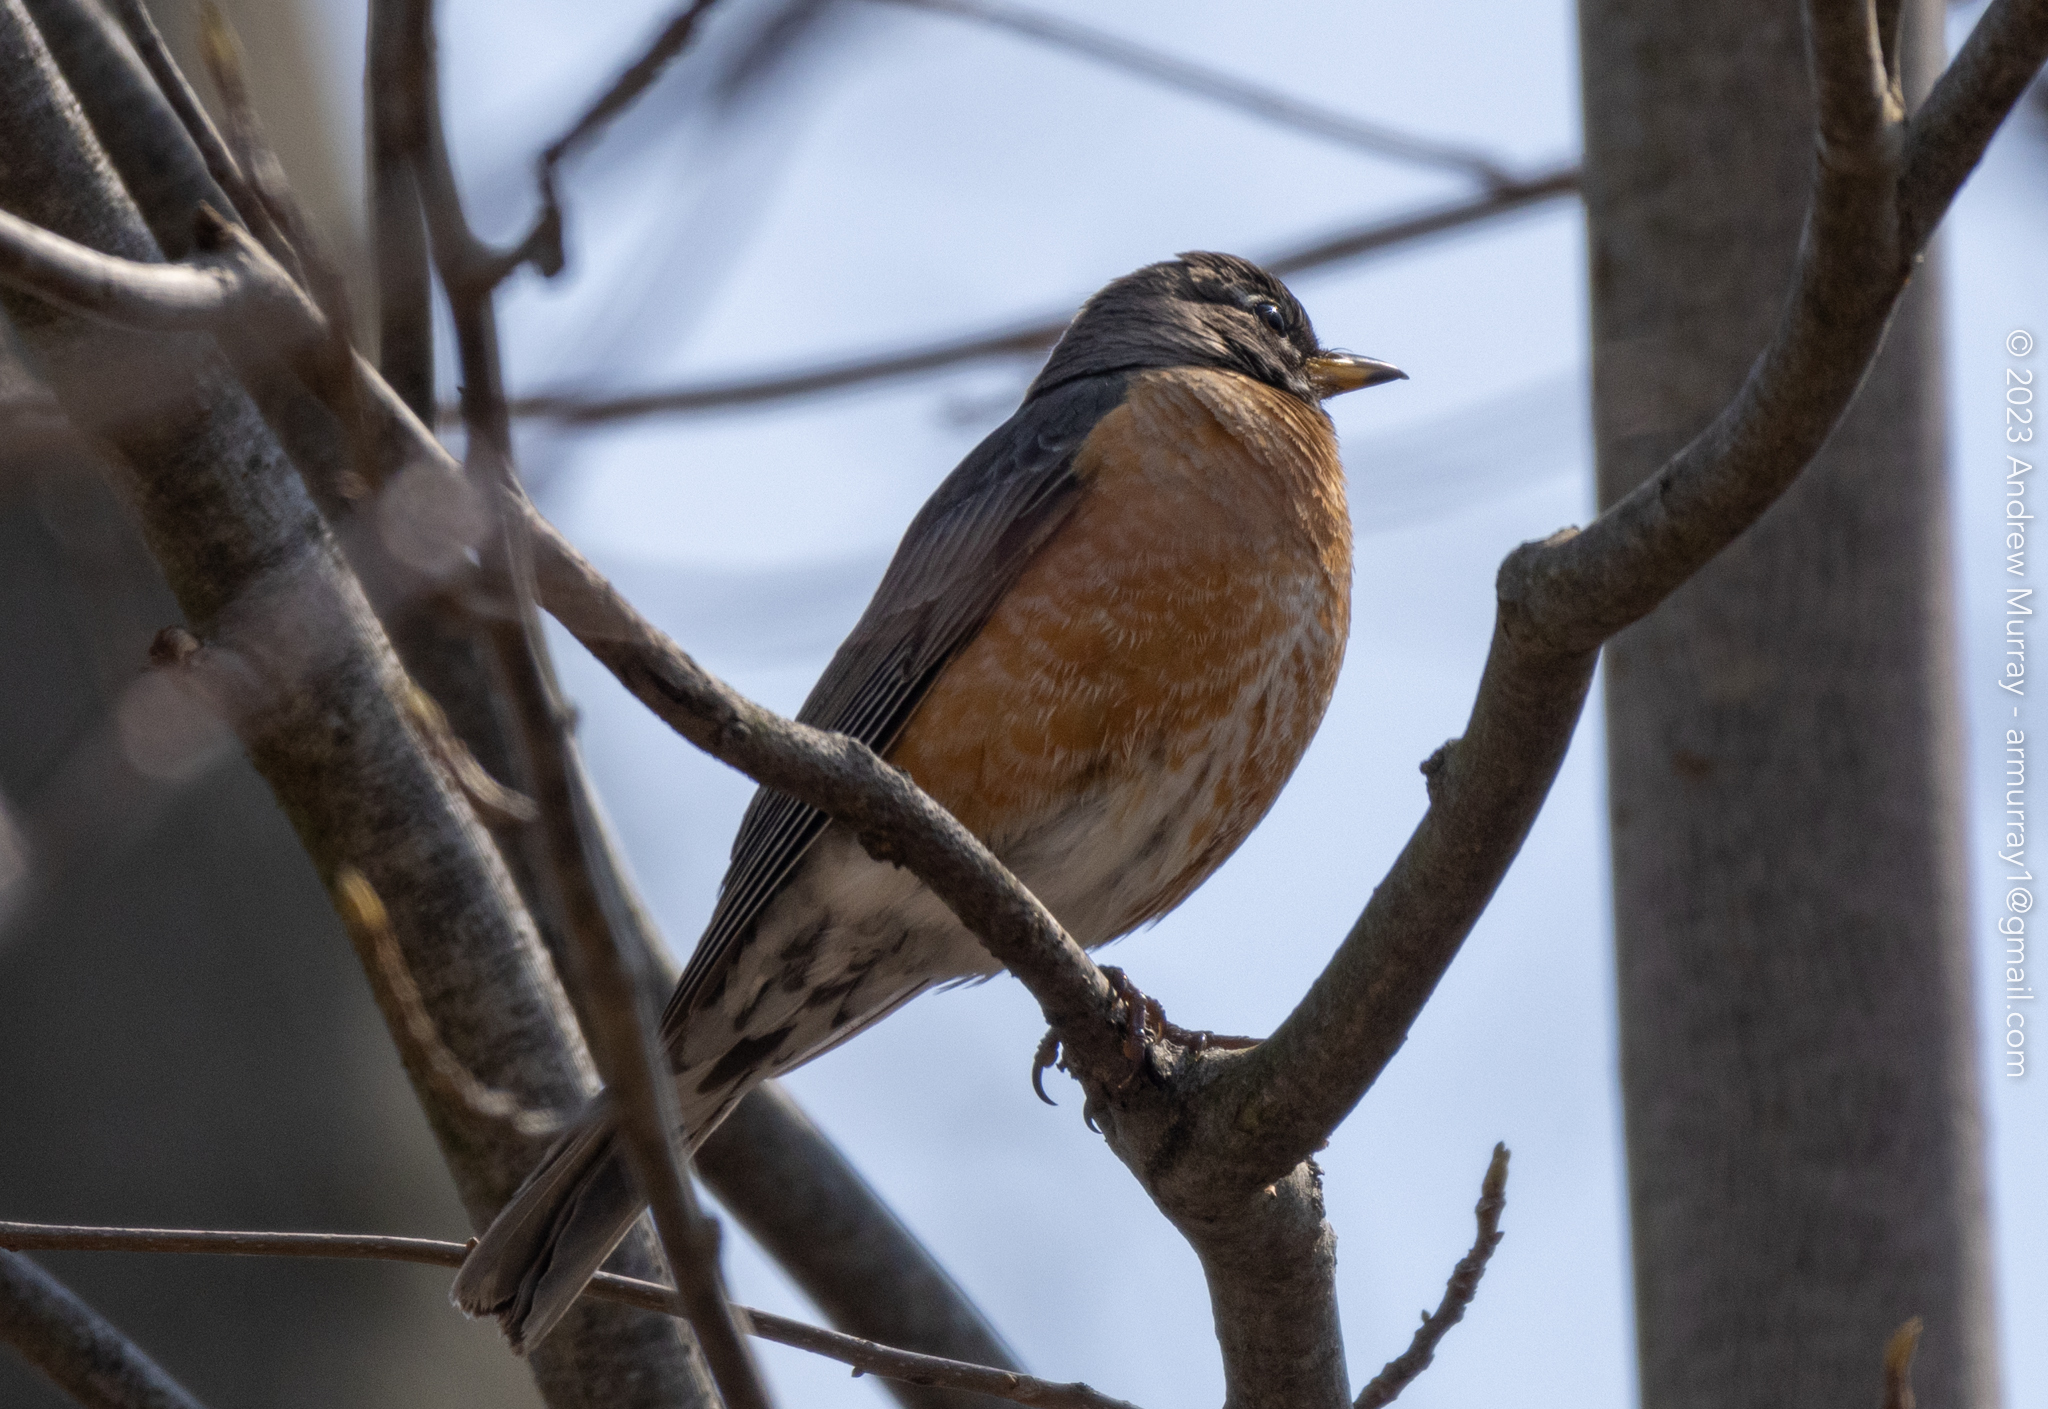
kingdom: Animalia
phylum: Chordata
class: Aves
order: Passeriformes
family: Turdidae
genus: Turdus
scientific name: Turdus migratorius
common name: American robin
